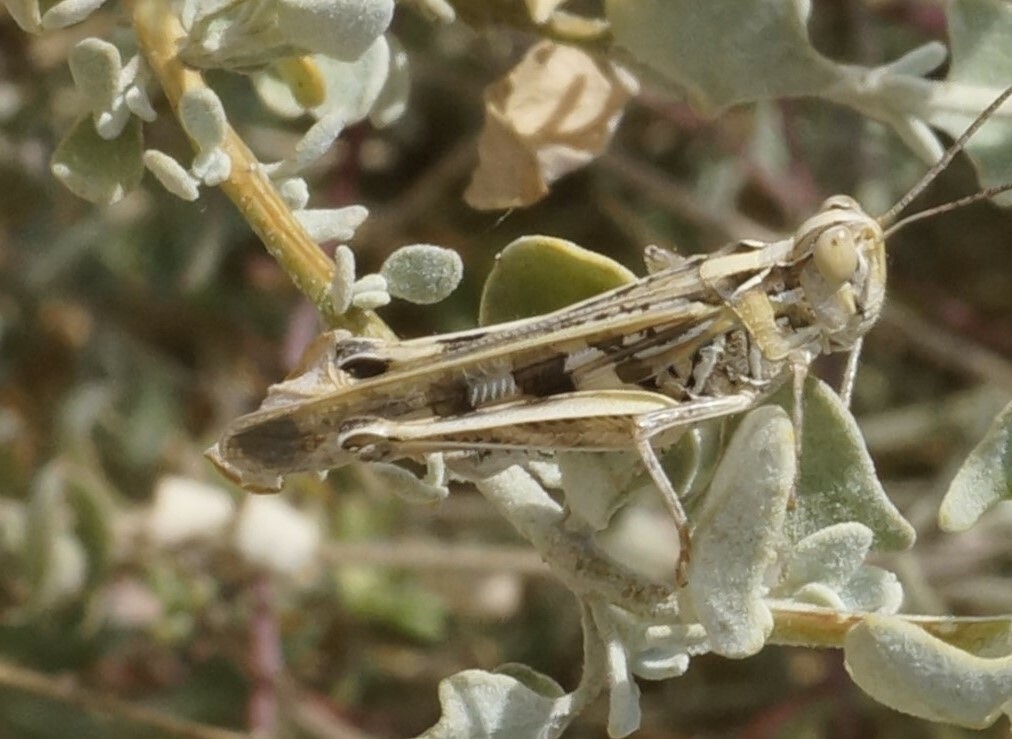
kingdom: Animalia
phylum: Arthropoda
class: Insecta
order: Orthoptera
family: Acrididae
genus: Chortoicetes
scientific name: Chortoicetes terminifera
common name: Australian plague locust
